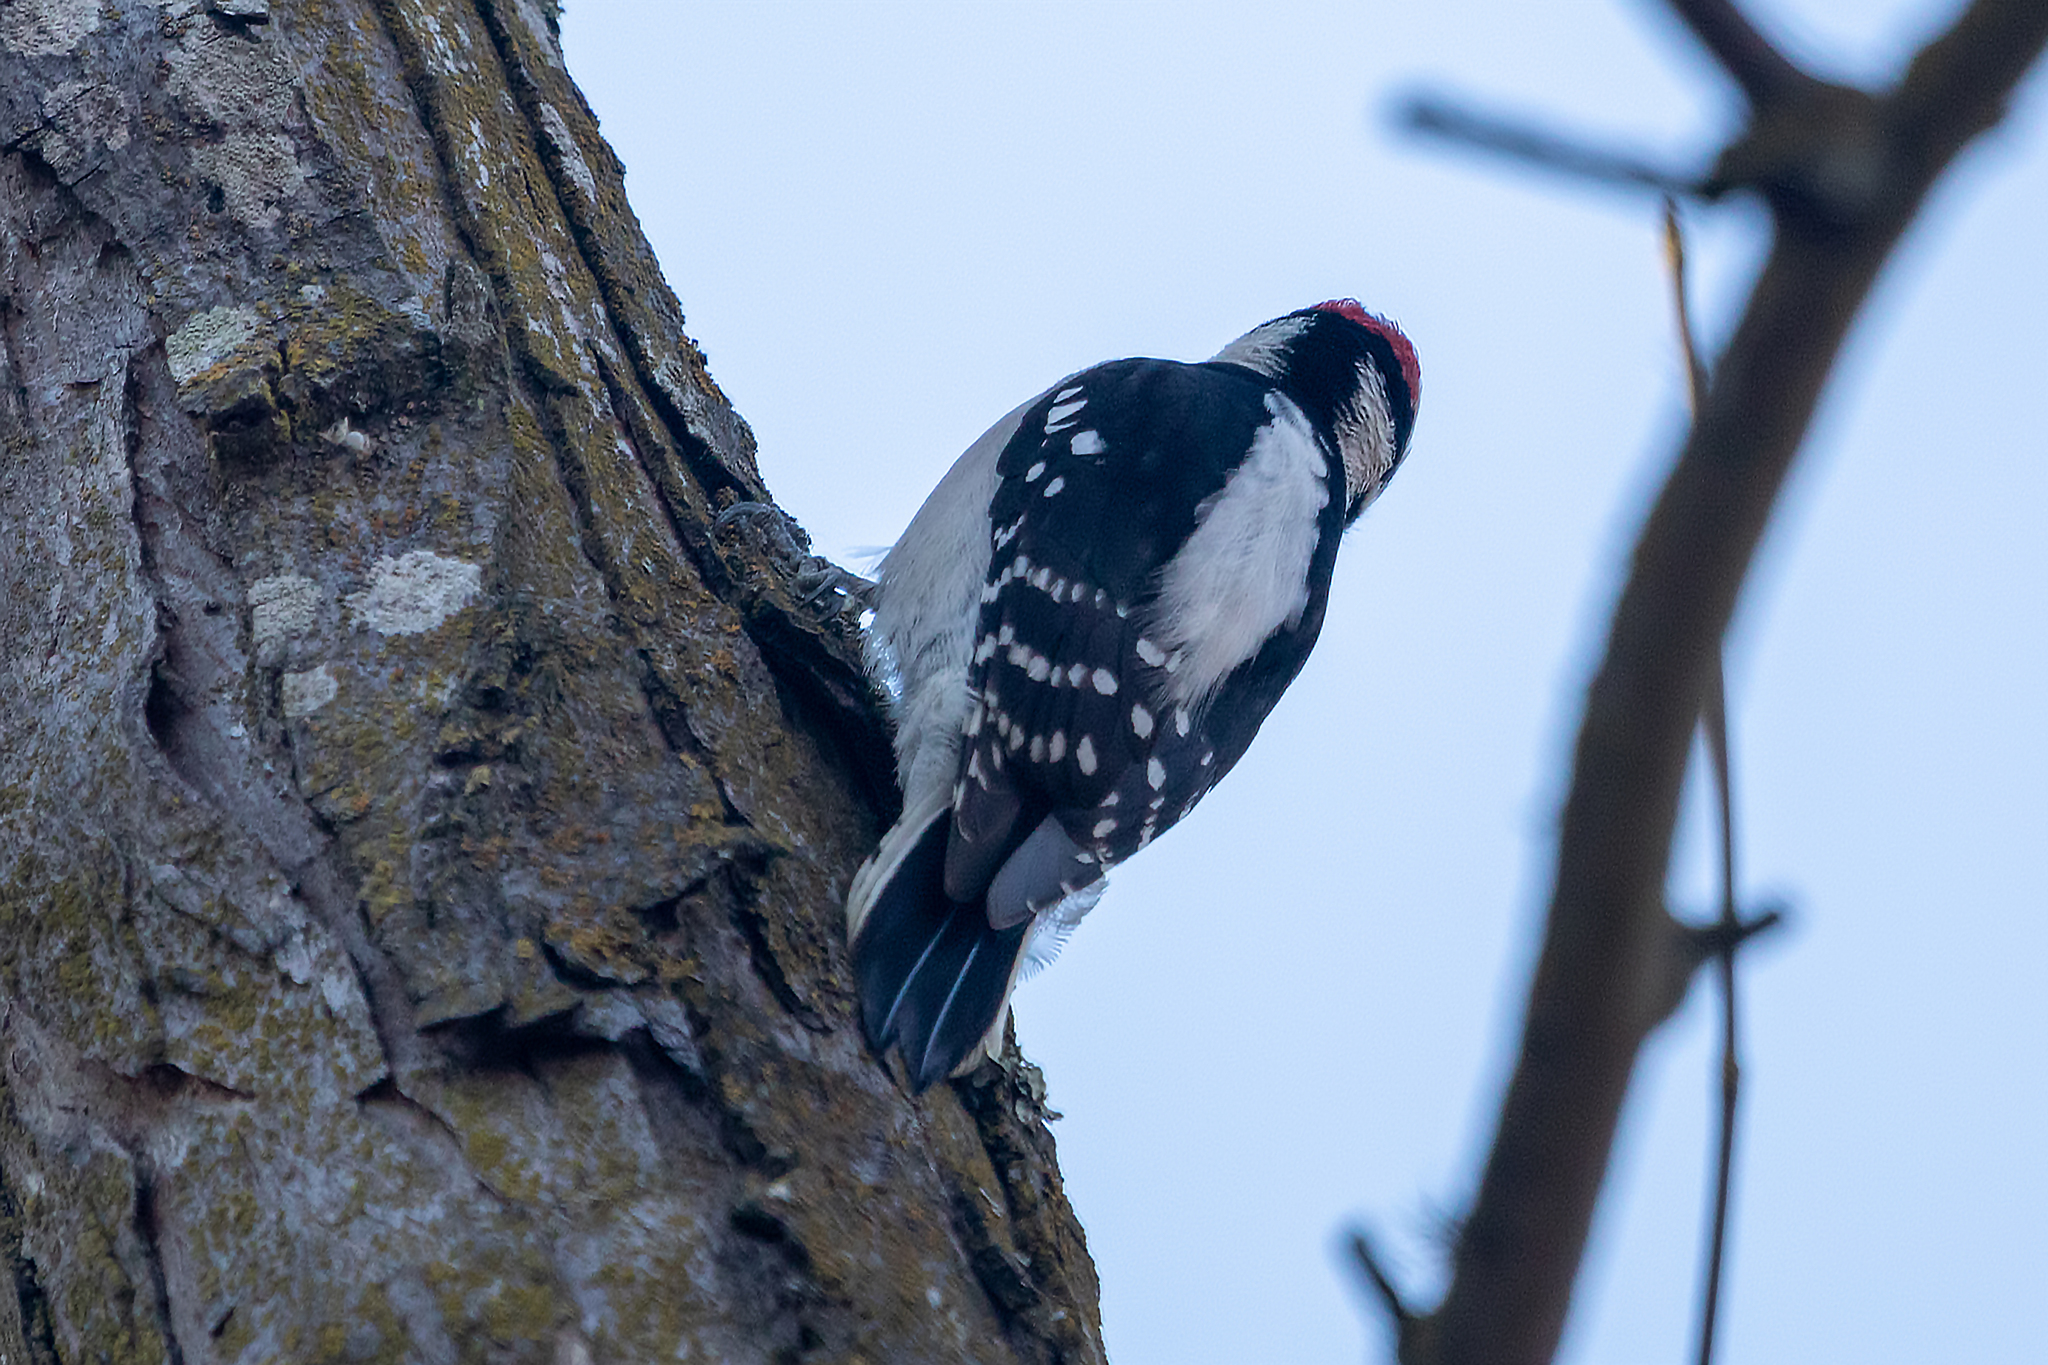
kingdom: Animalia
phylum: Chordata
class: Aves
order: Piciformes
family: Picidae
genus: Dryobates
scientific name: Dryobates pubescens
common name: Downy woodpecker
